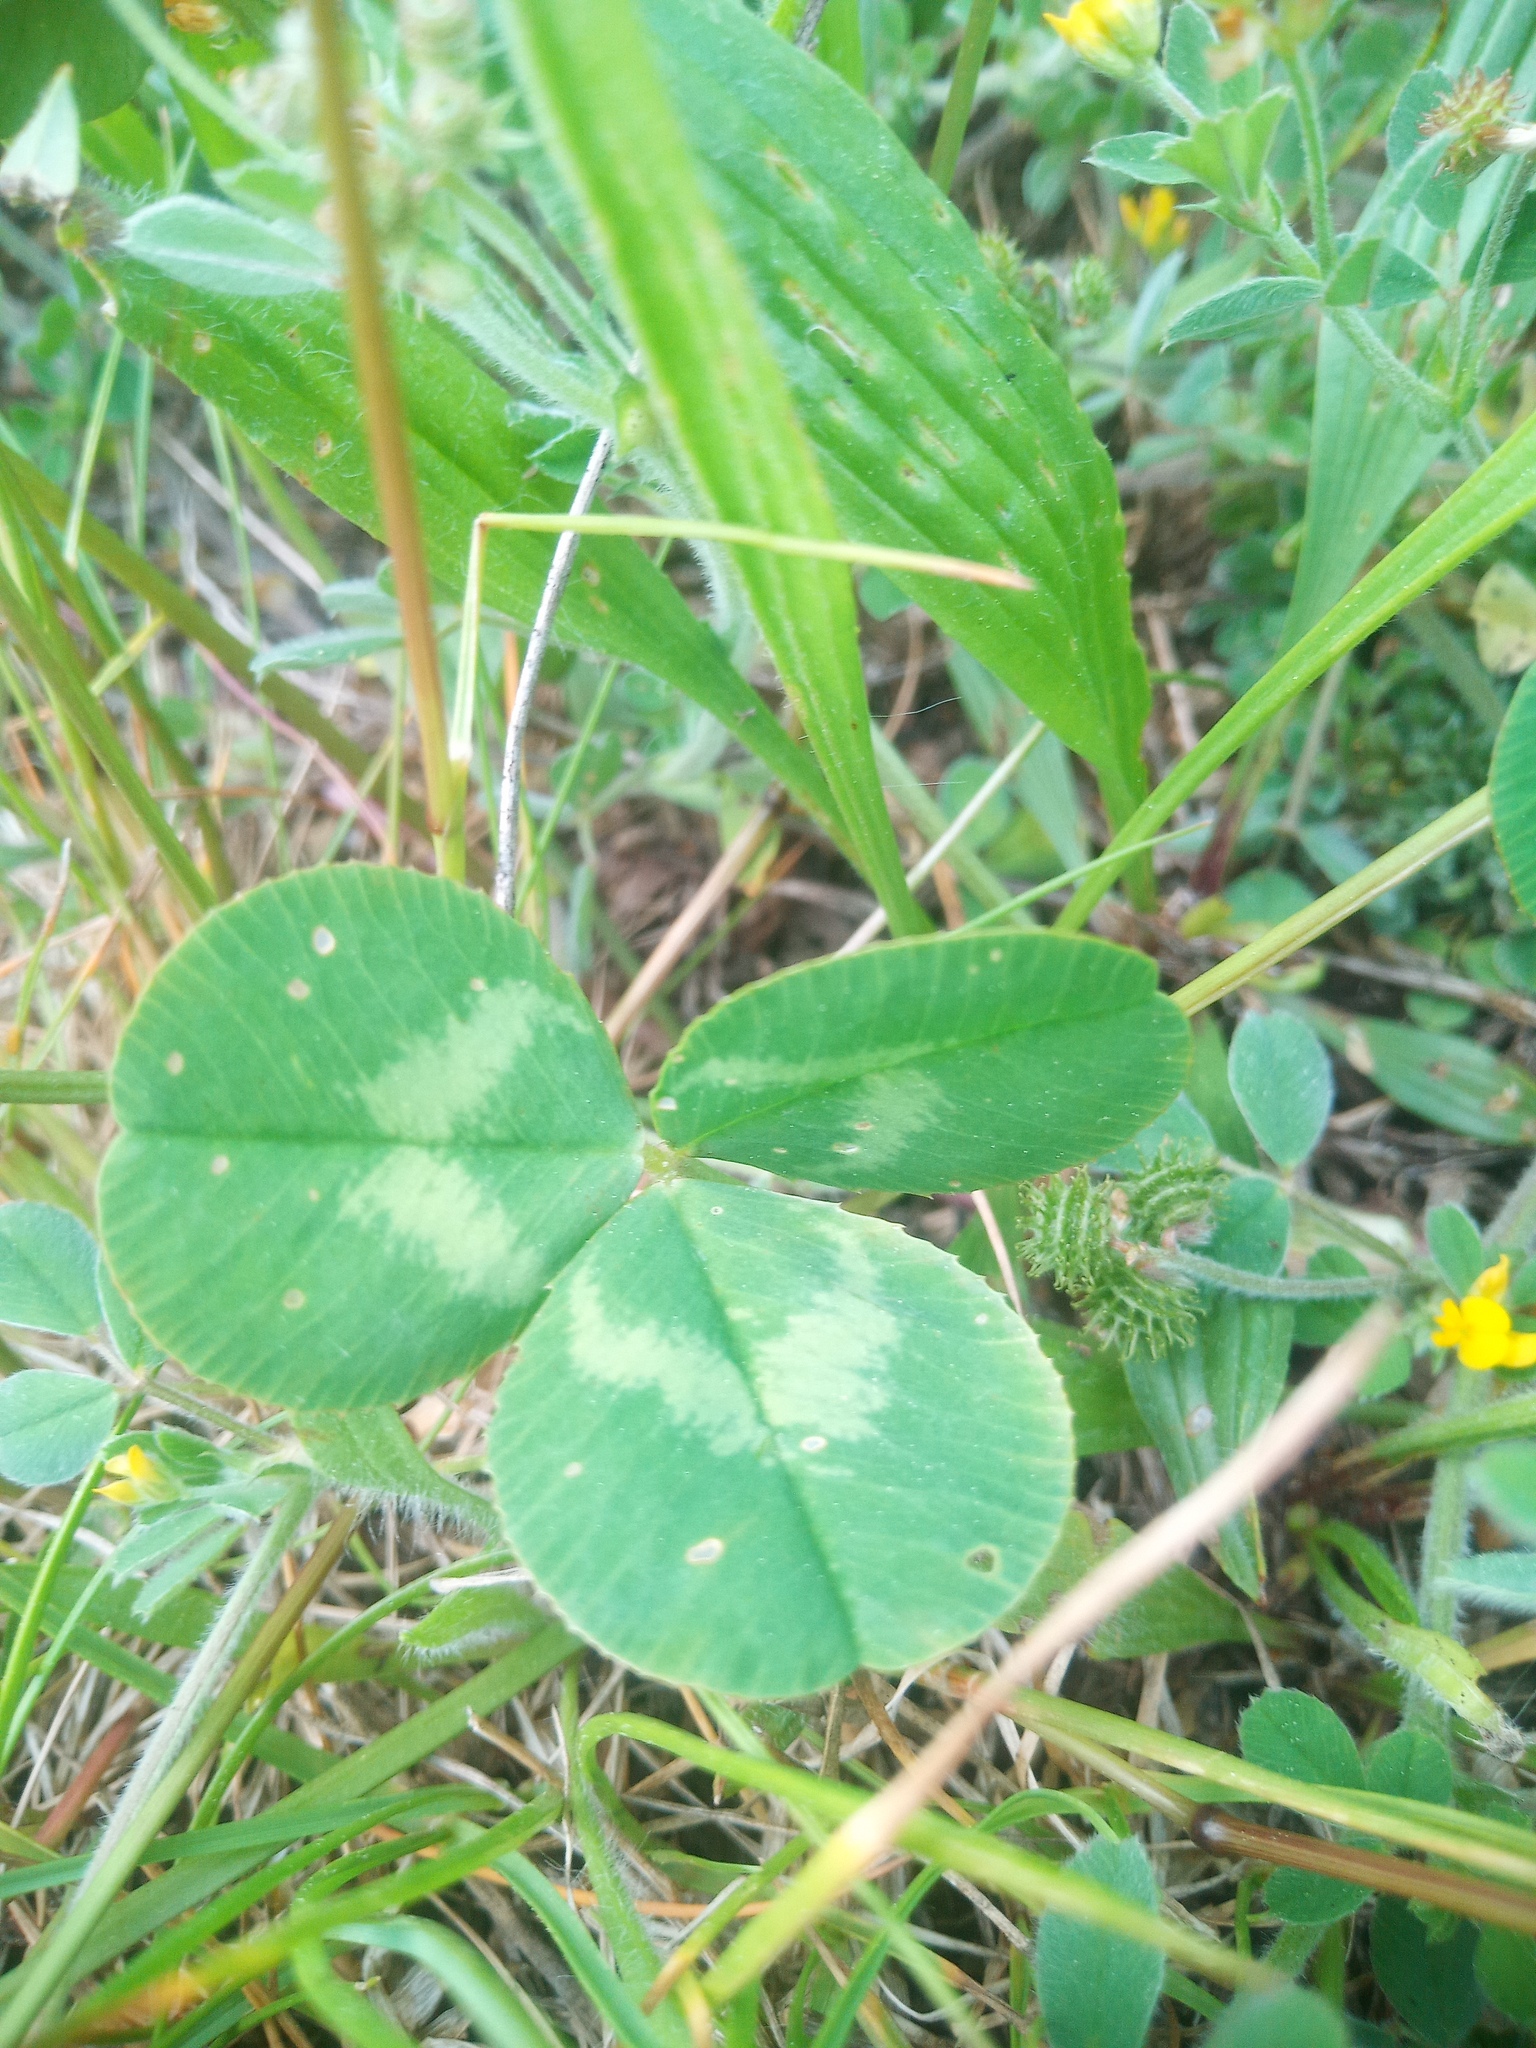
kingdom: Plantae
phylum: Tracheophyta
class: Magnoliopsida
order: Fabales
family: Fabaceae
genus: Trifolium
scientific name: Trifolium repens
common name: White clover
